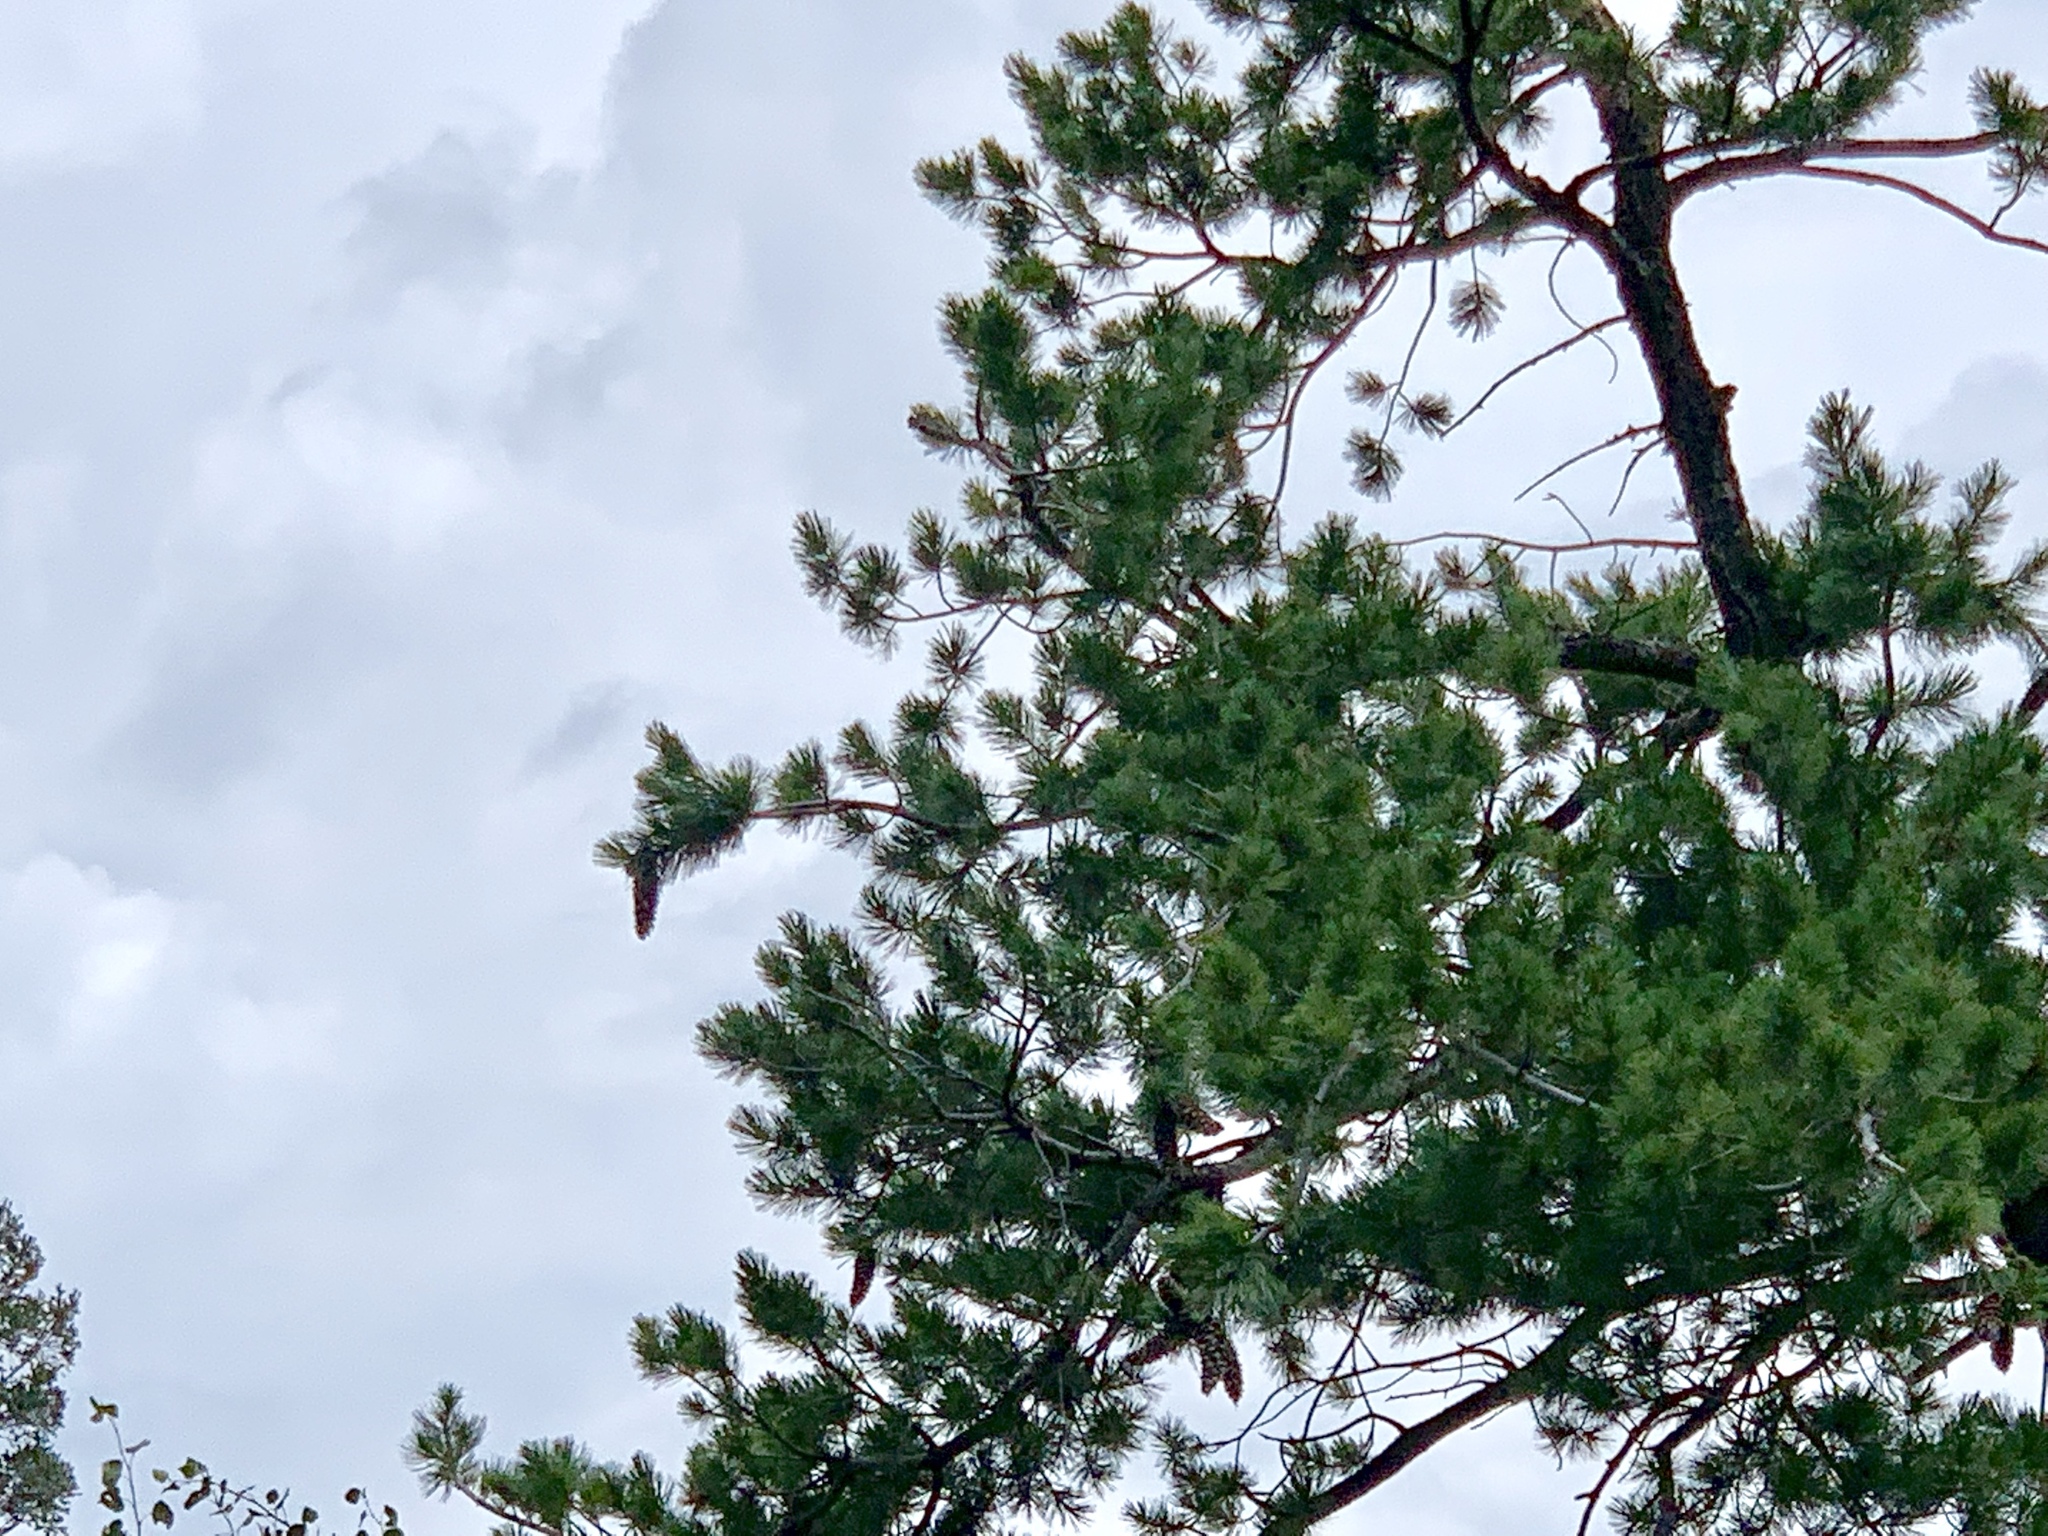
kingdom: Plantae
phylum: Tracheophyta
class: Pinopsida
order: Pinales
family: Pinaceae
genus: Pinus
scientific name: Pinus strobiformis
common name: Southwestern white pine
